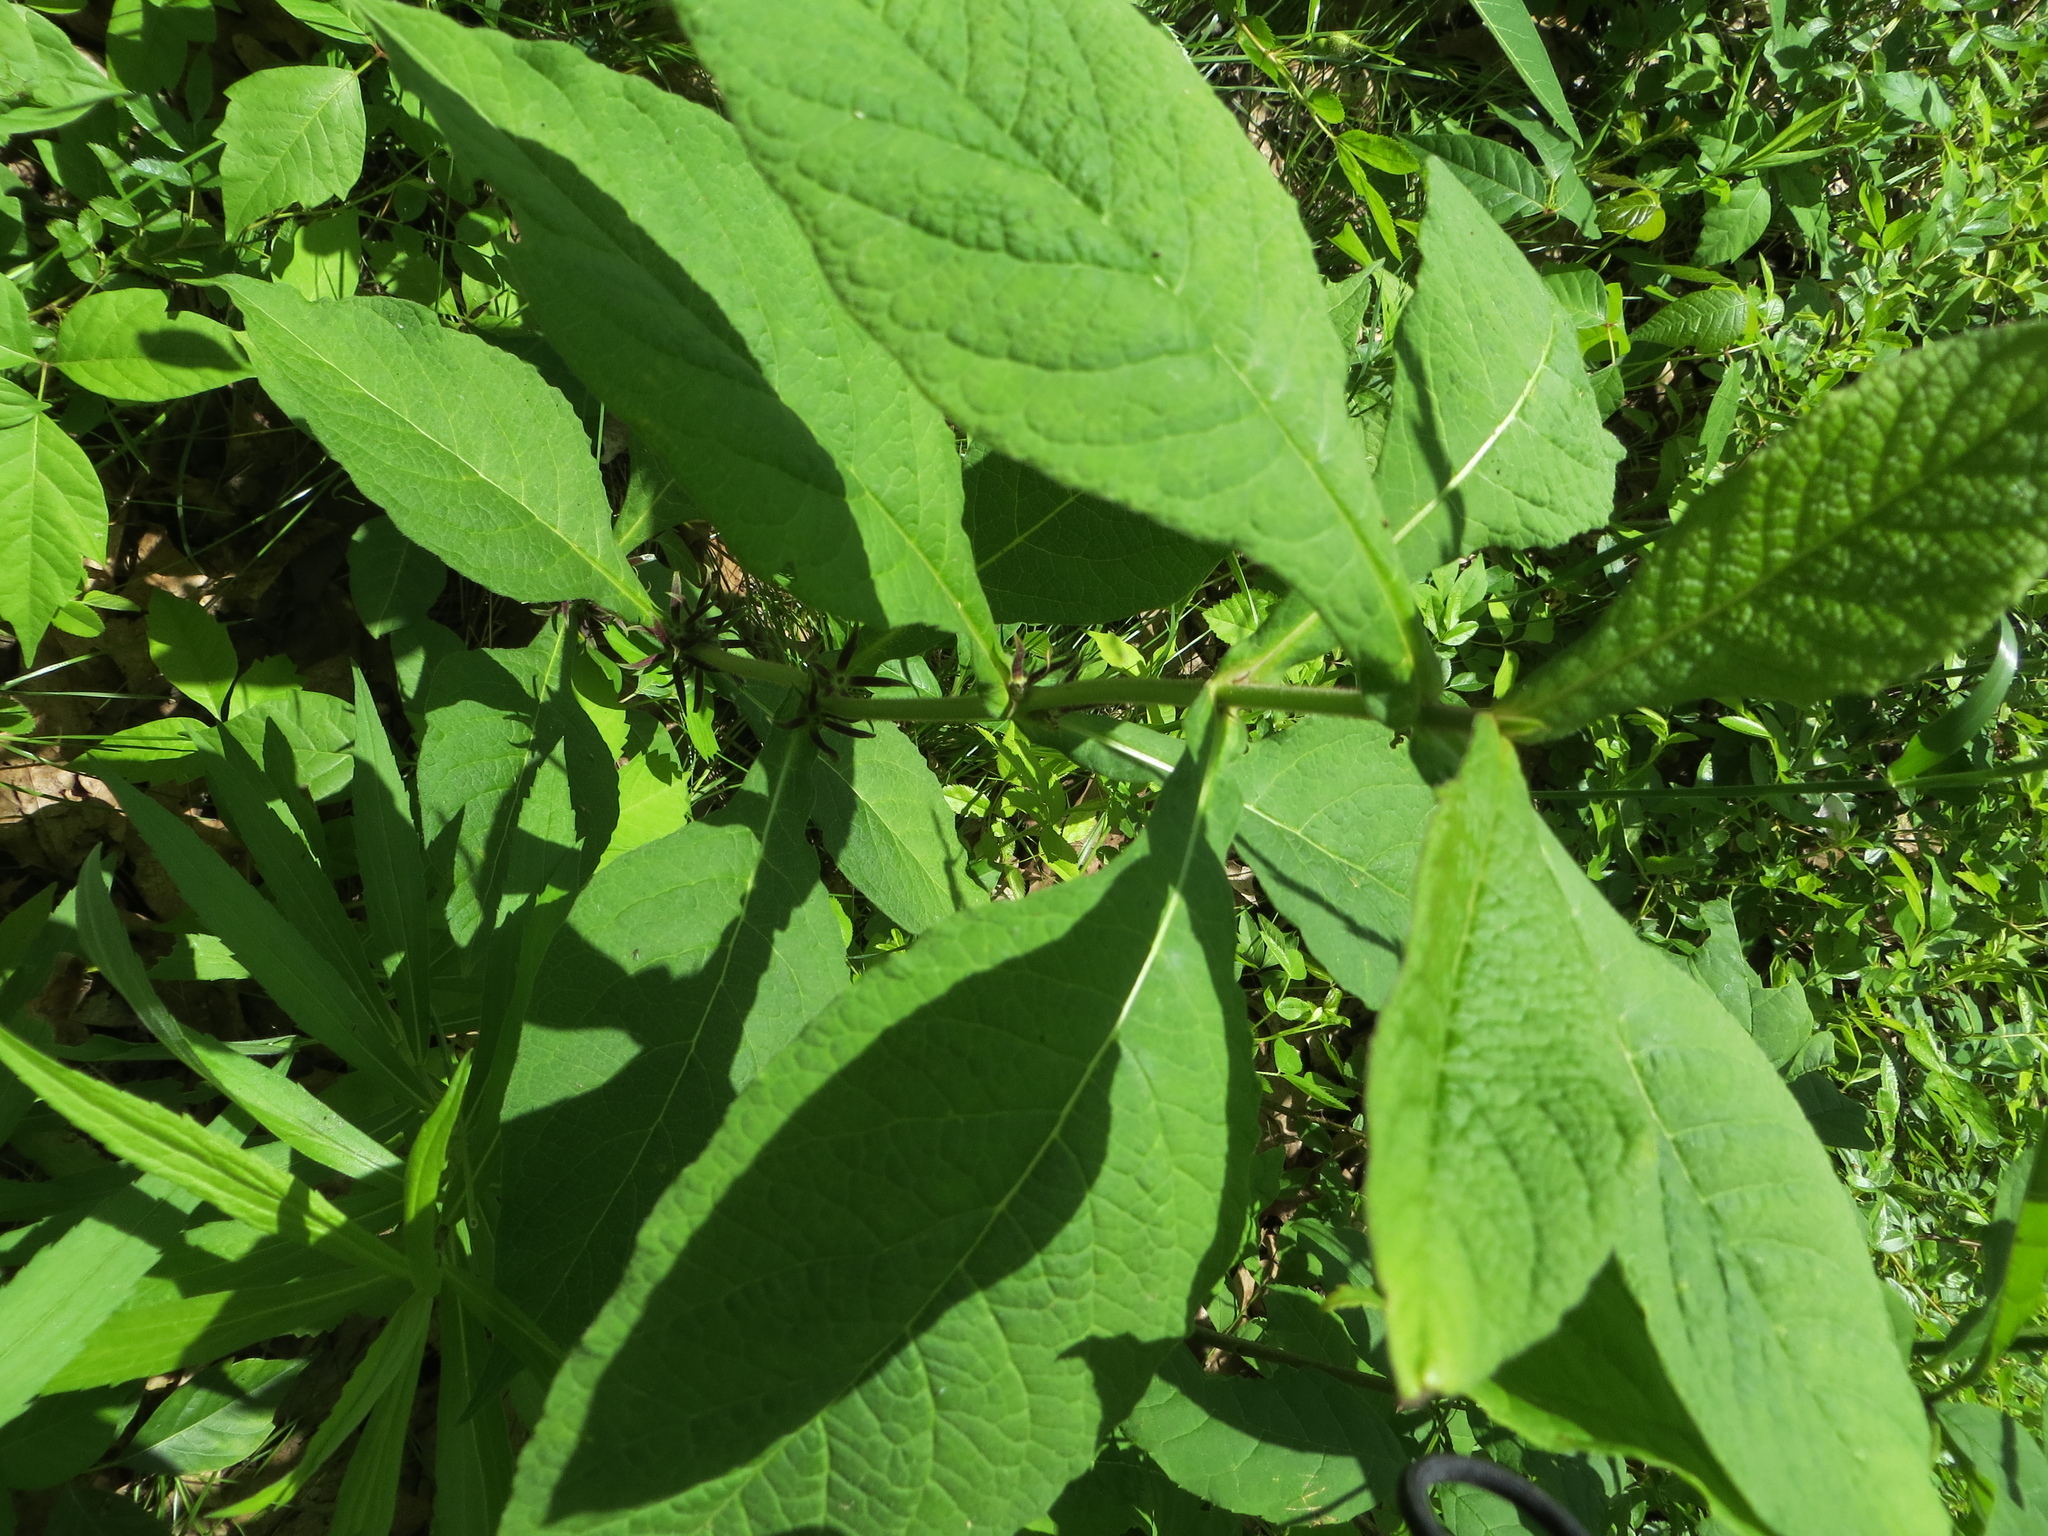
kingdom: Plantae
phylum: Tracheophyta
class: Magnoliopsida
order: Dipsacales
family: Caprifoliaceae
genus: Triosteum
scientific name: Triosteum aurantiacum
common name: Coffee tinker's-weed
